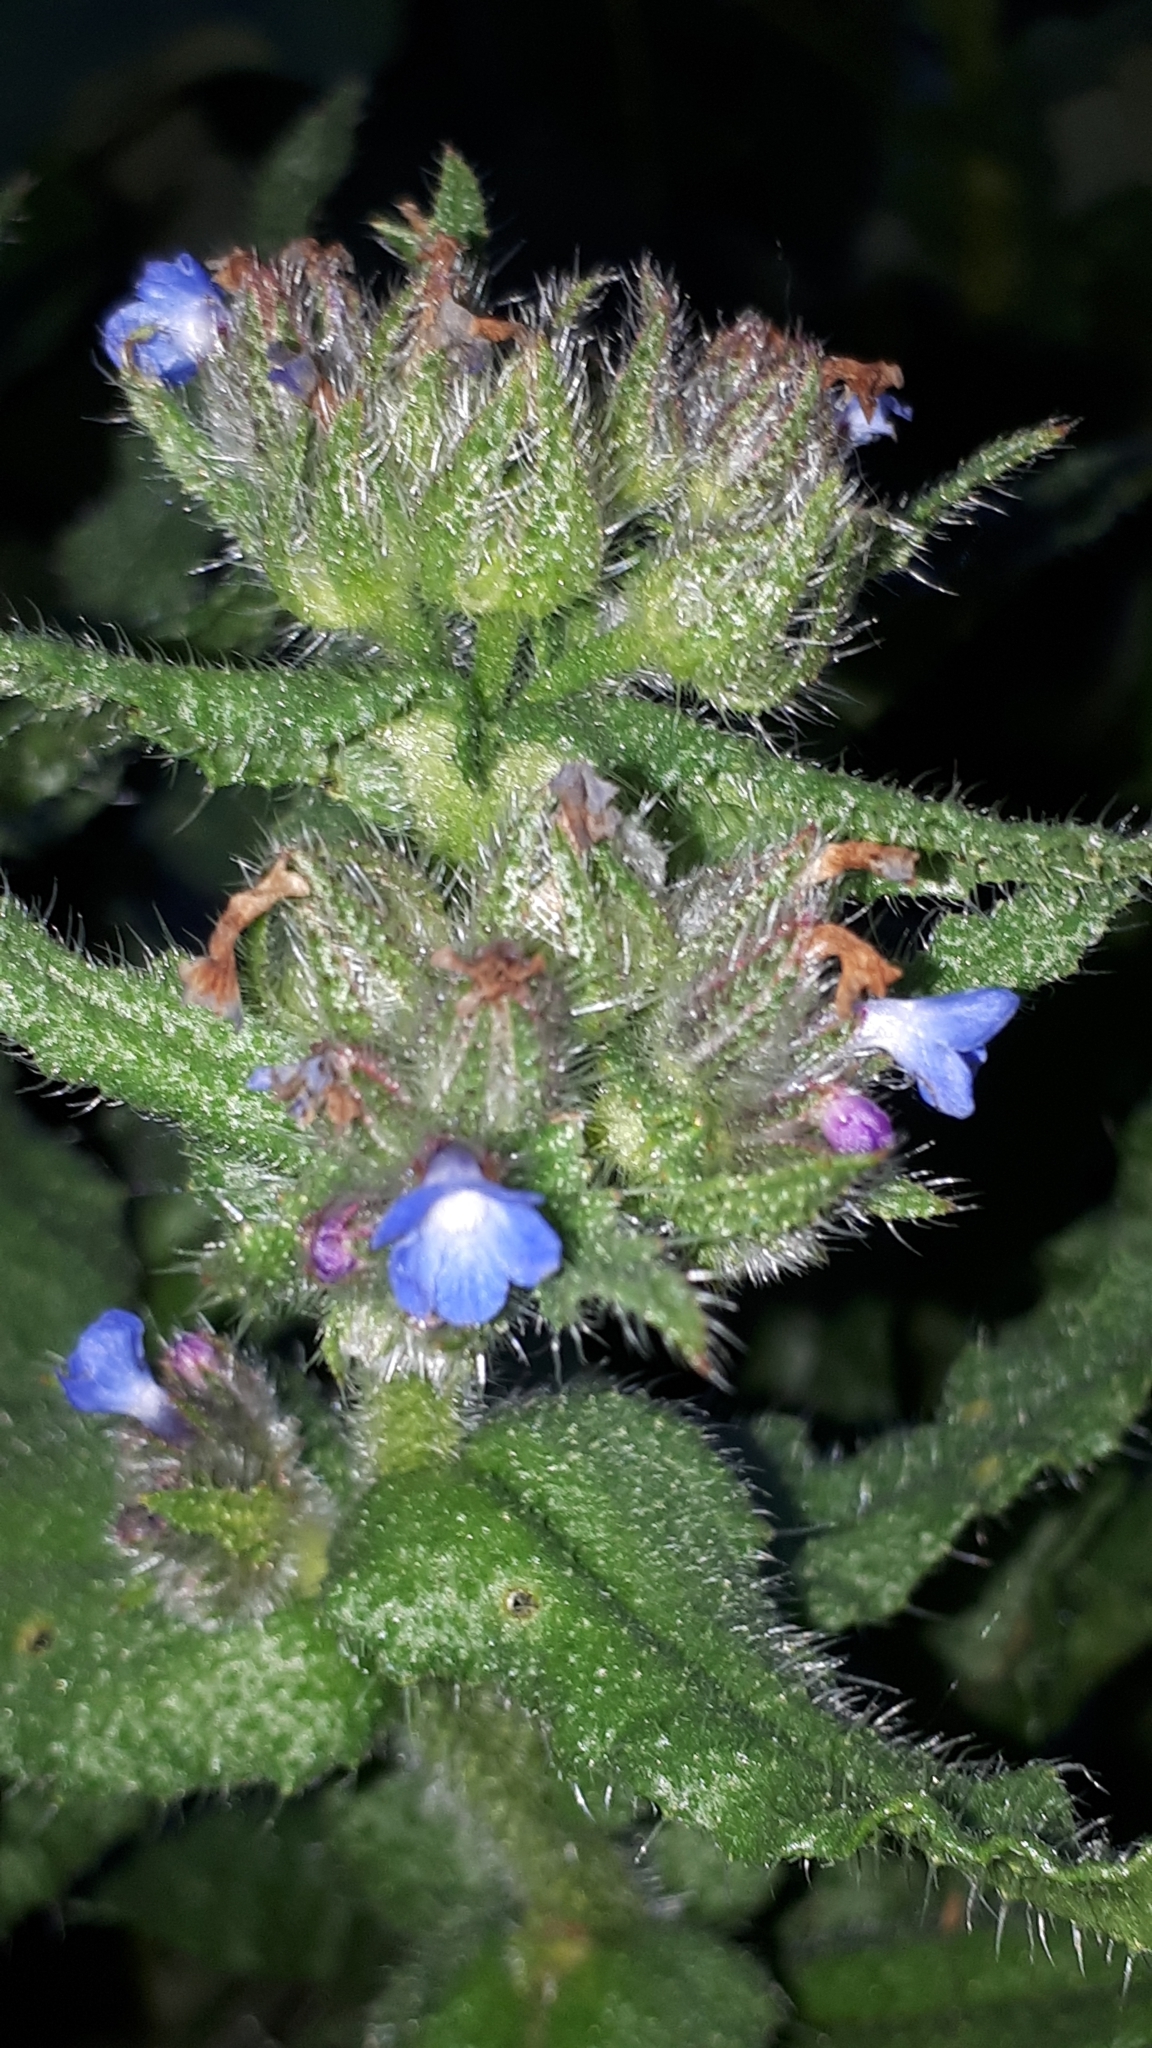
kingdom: Plantae
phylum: Tracheophyta
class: Magnoliopsida
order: Boraginales
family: Boraginaceae
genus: Lycopsis
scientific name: Lycopsis arvensis
